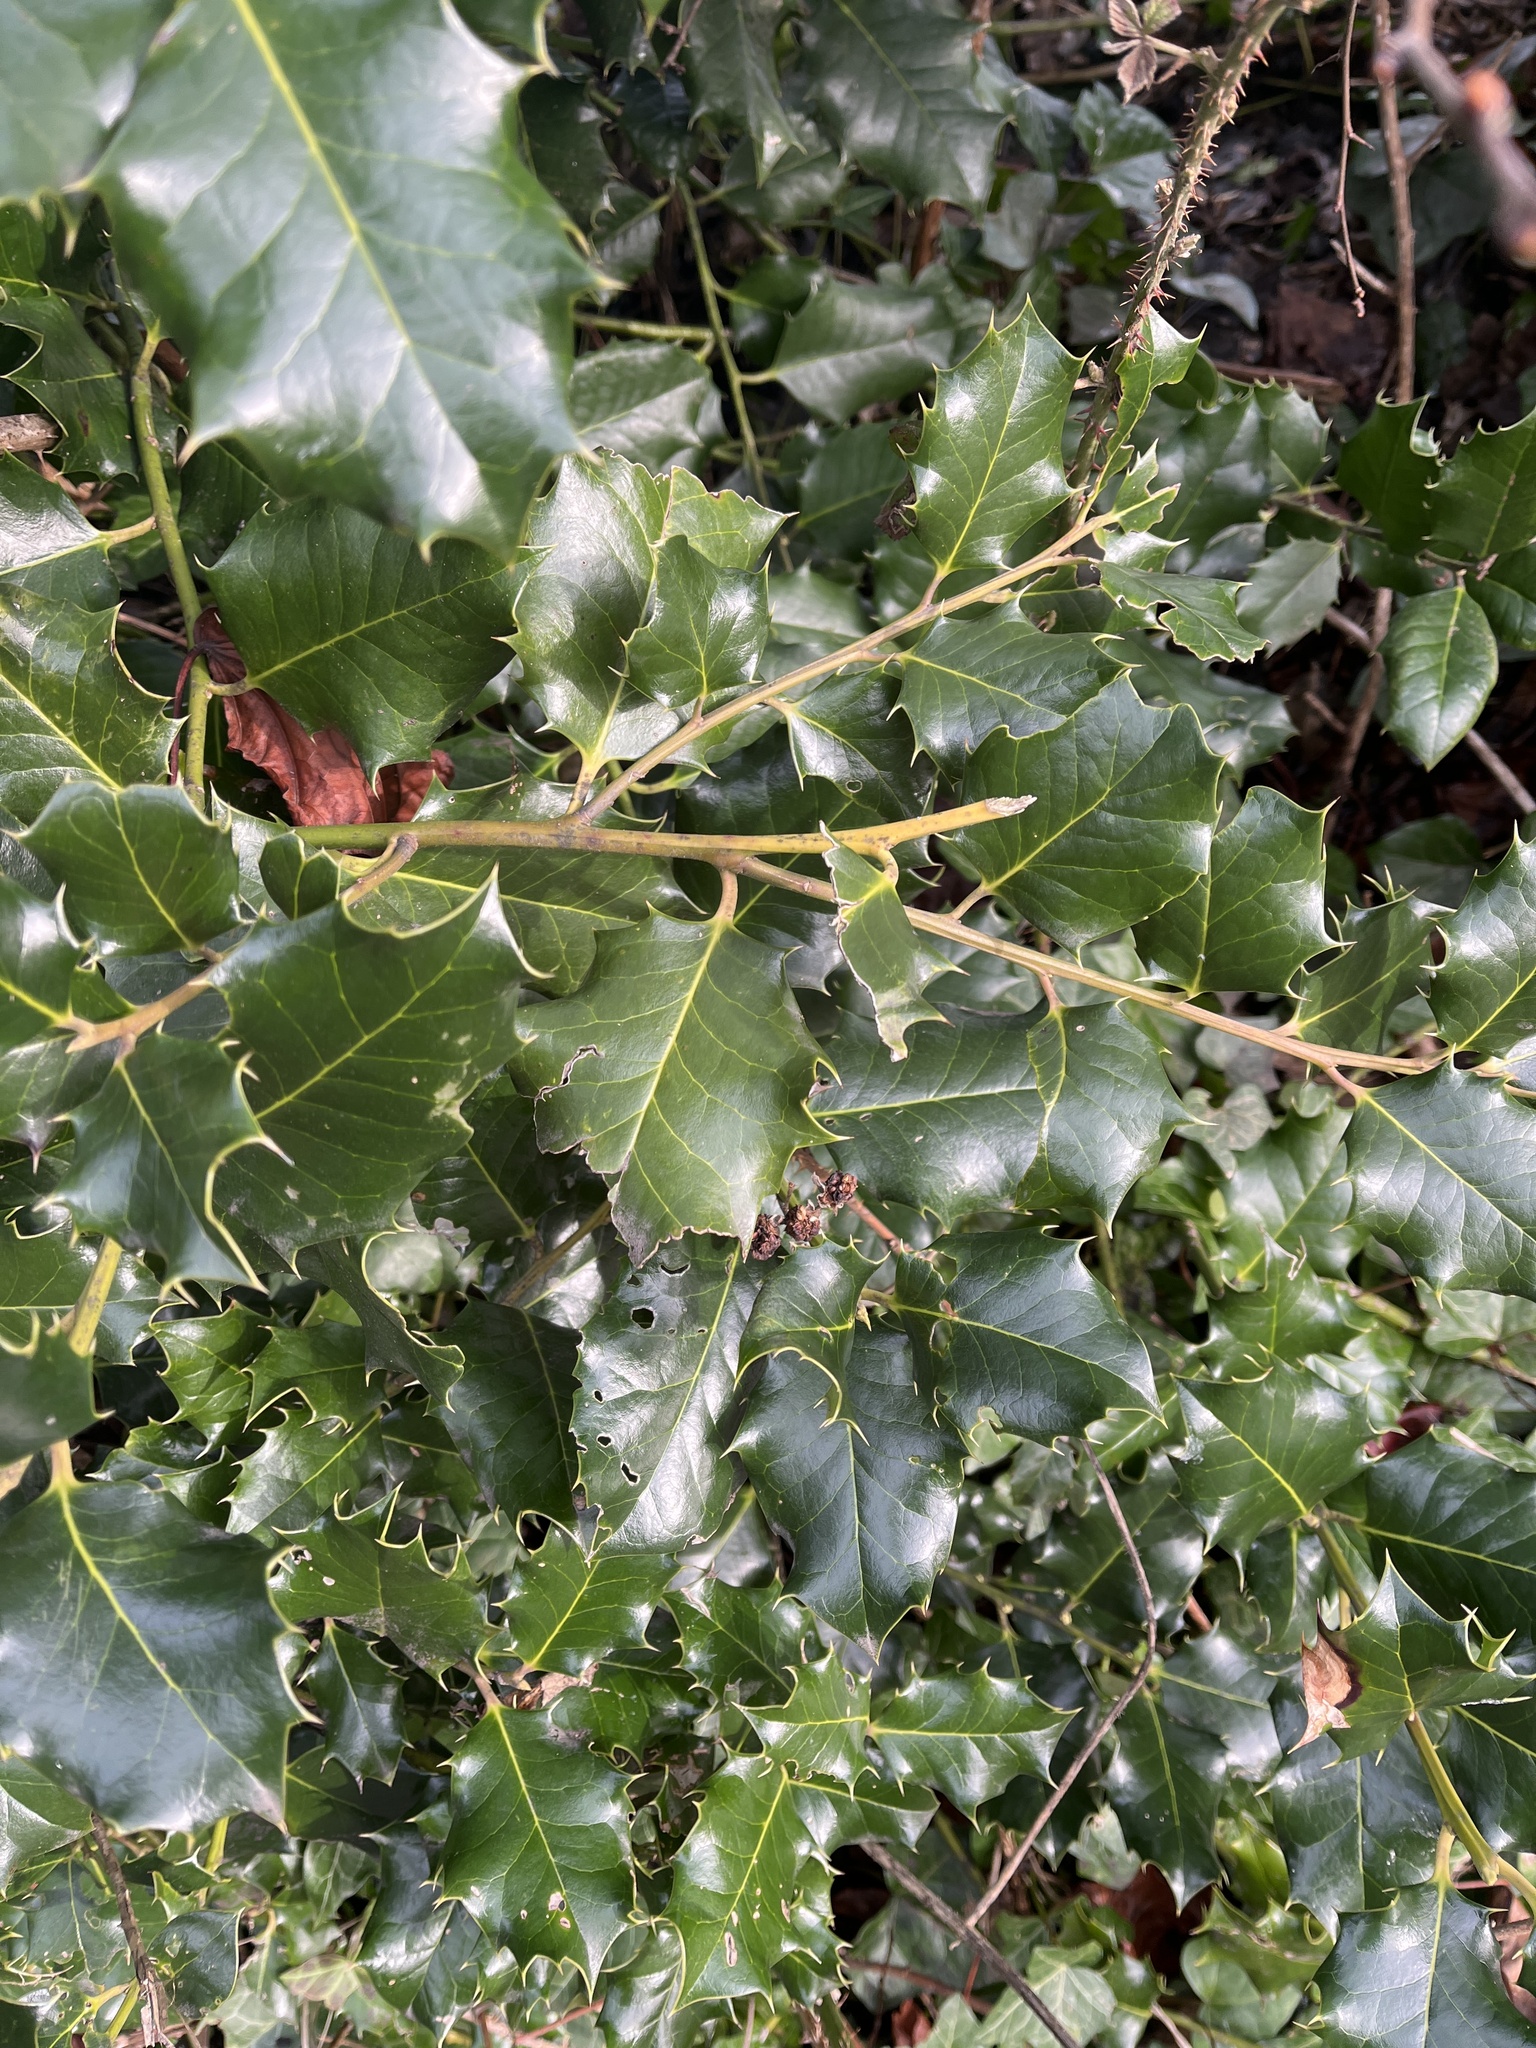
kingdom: Plantae
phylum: Tracheophyta
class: Magnoliopsida
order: Aquifoliales
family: Aquifoliaceae
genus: Ilex
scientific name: Ilex aquifolium
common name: English holly
